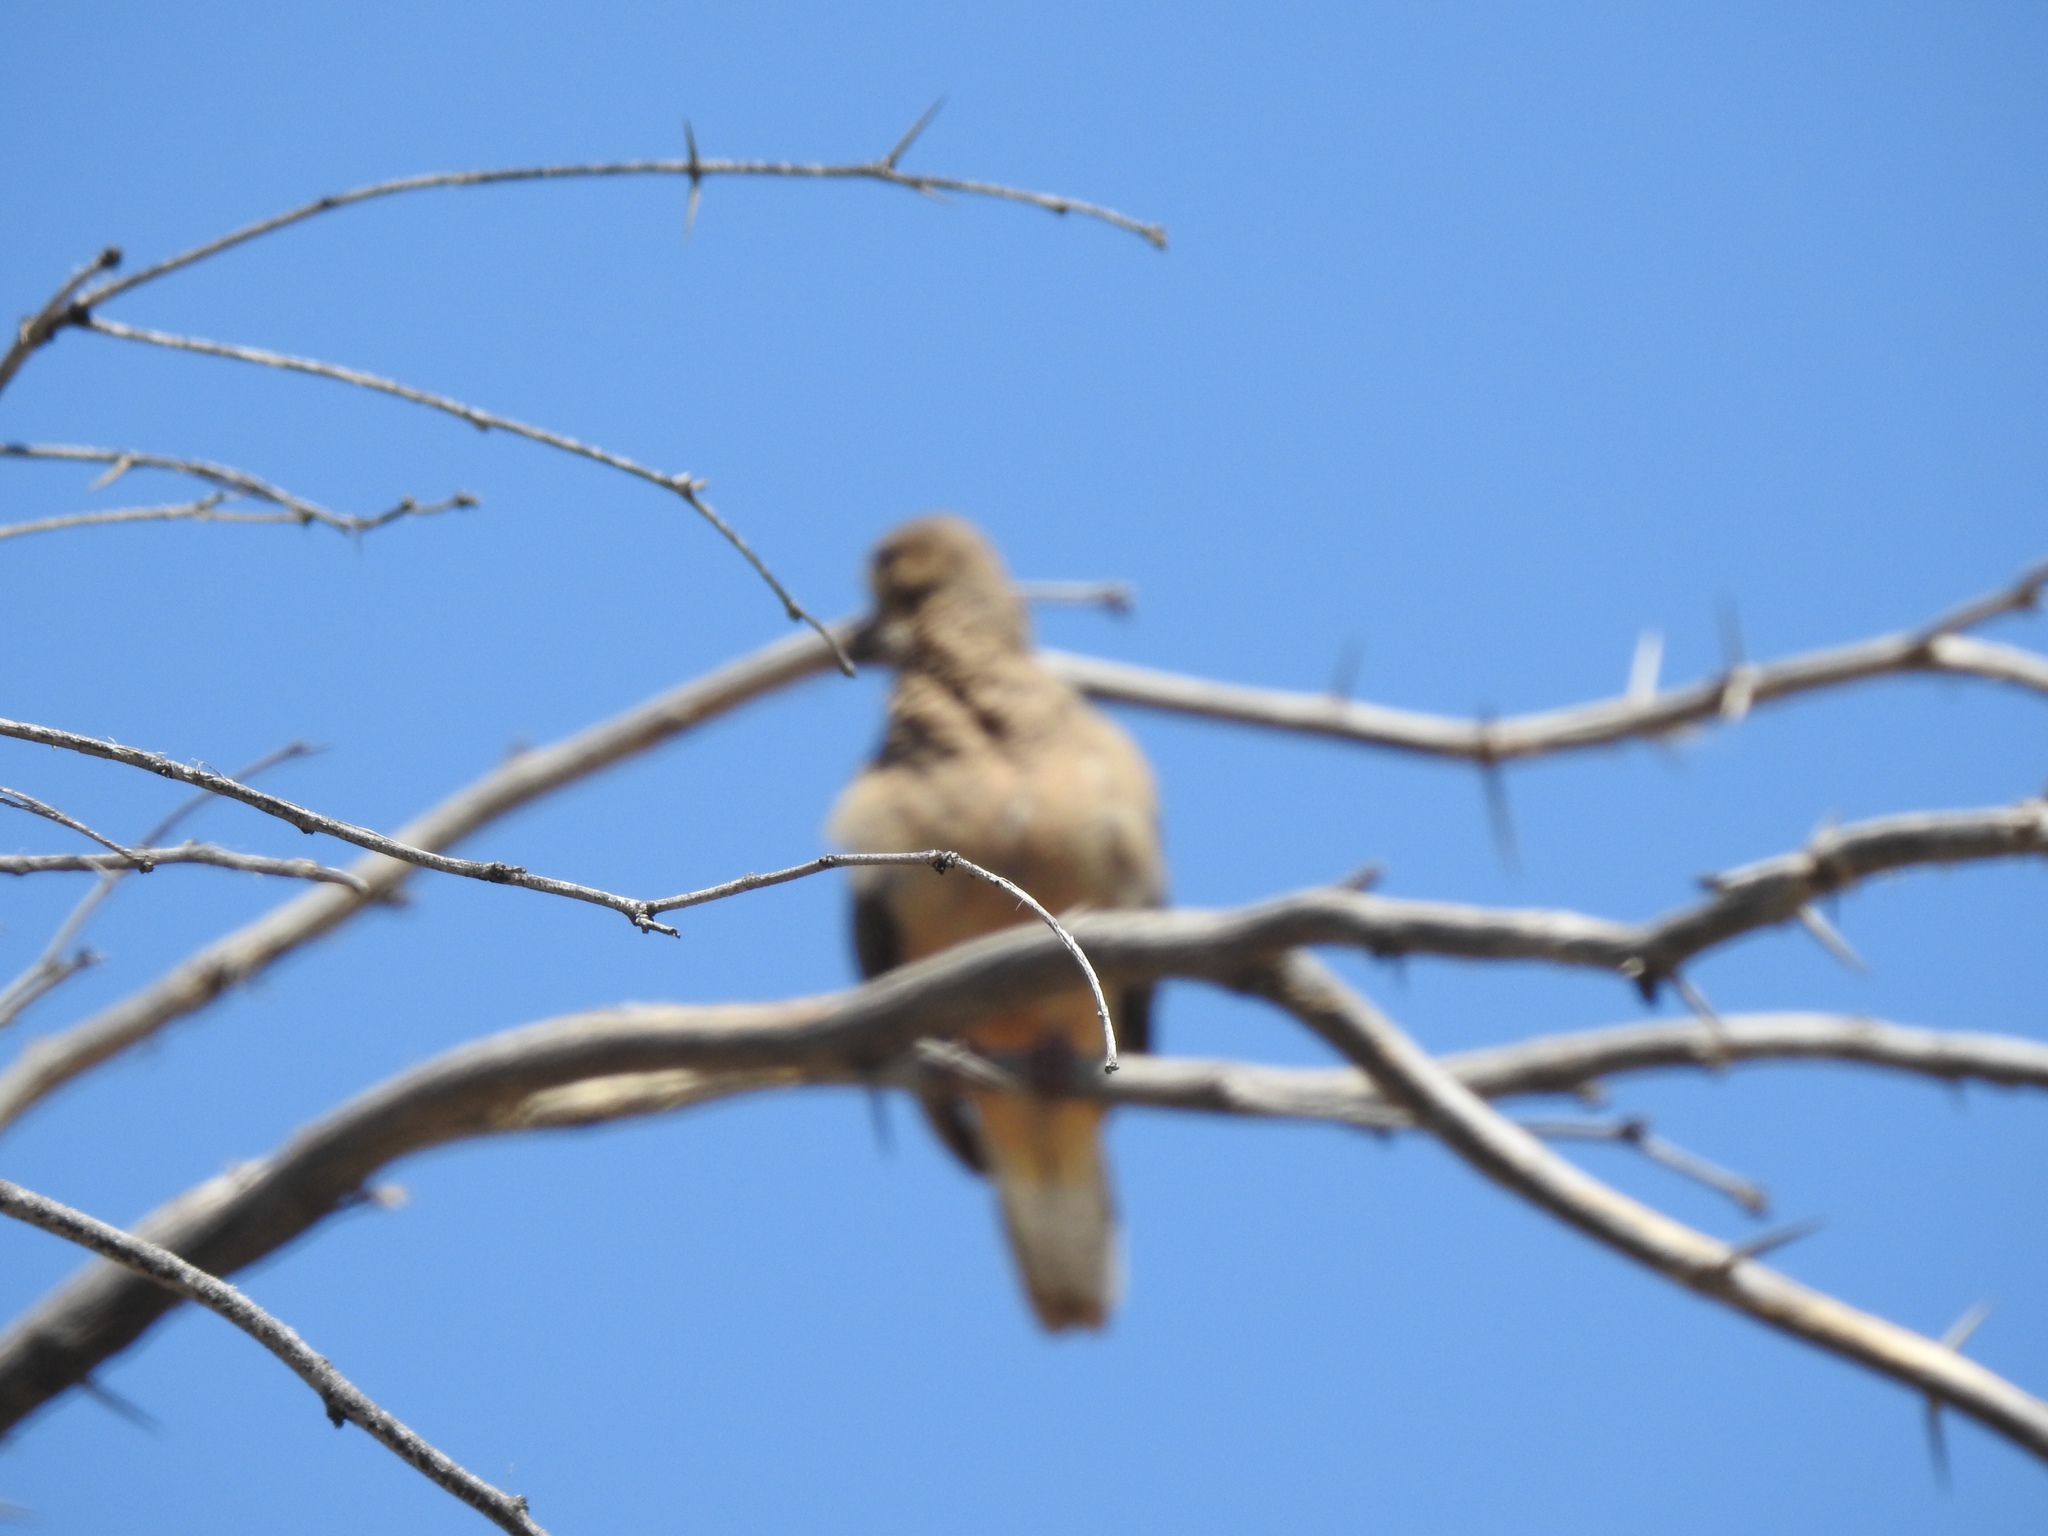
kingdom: Animalia
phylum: Chordata
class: Aves
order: Columbiformes
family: Columbidae
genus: Zenaida
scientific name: Zenaida macroura
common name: Mourning dove
